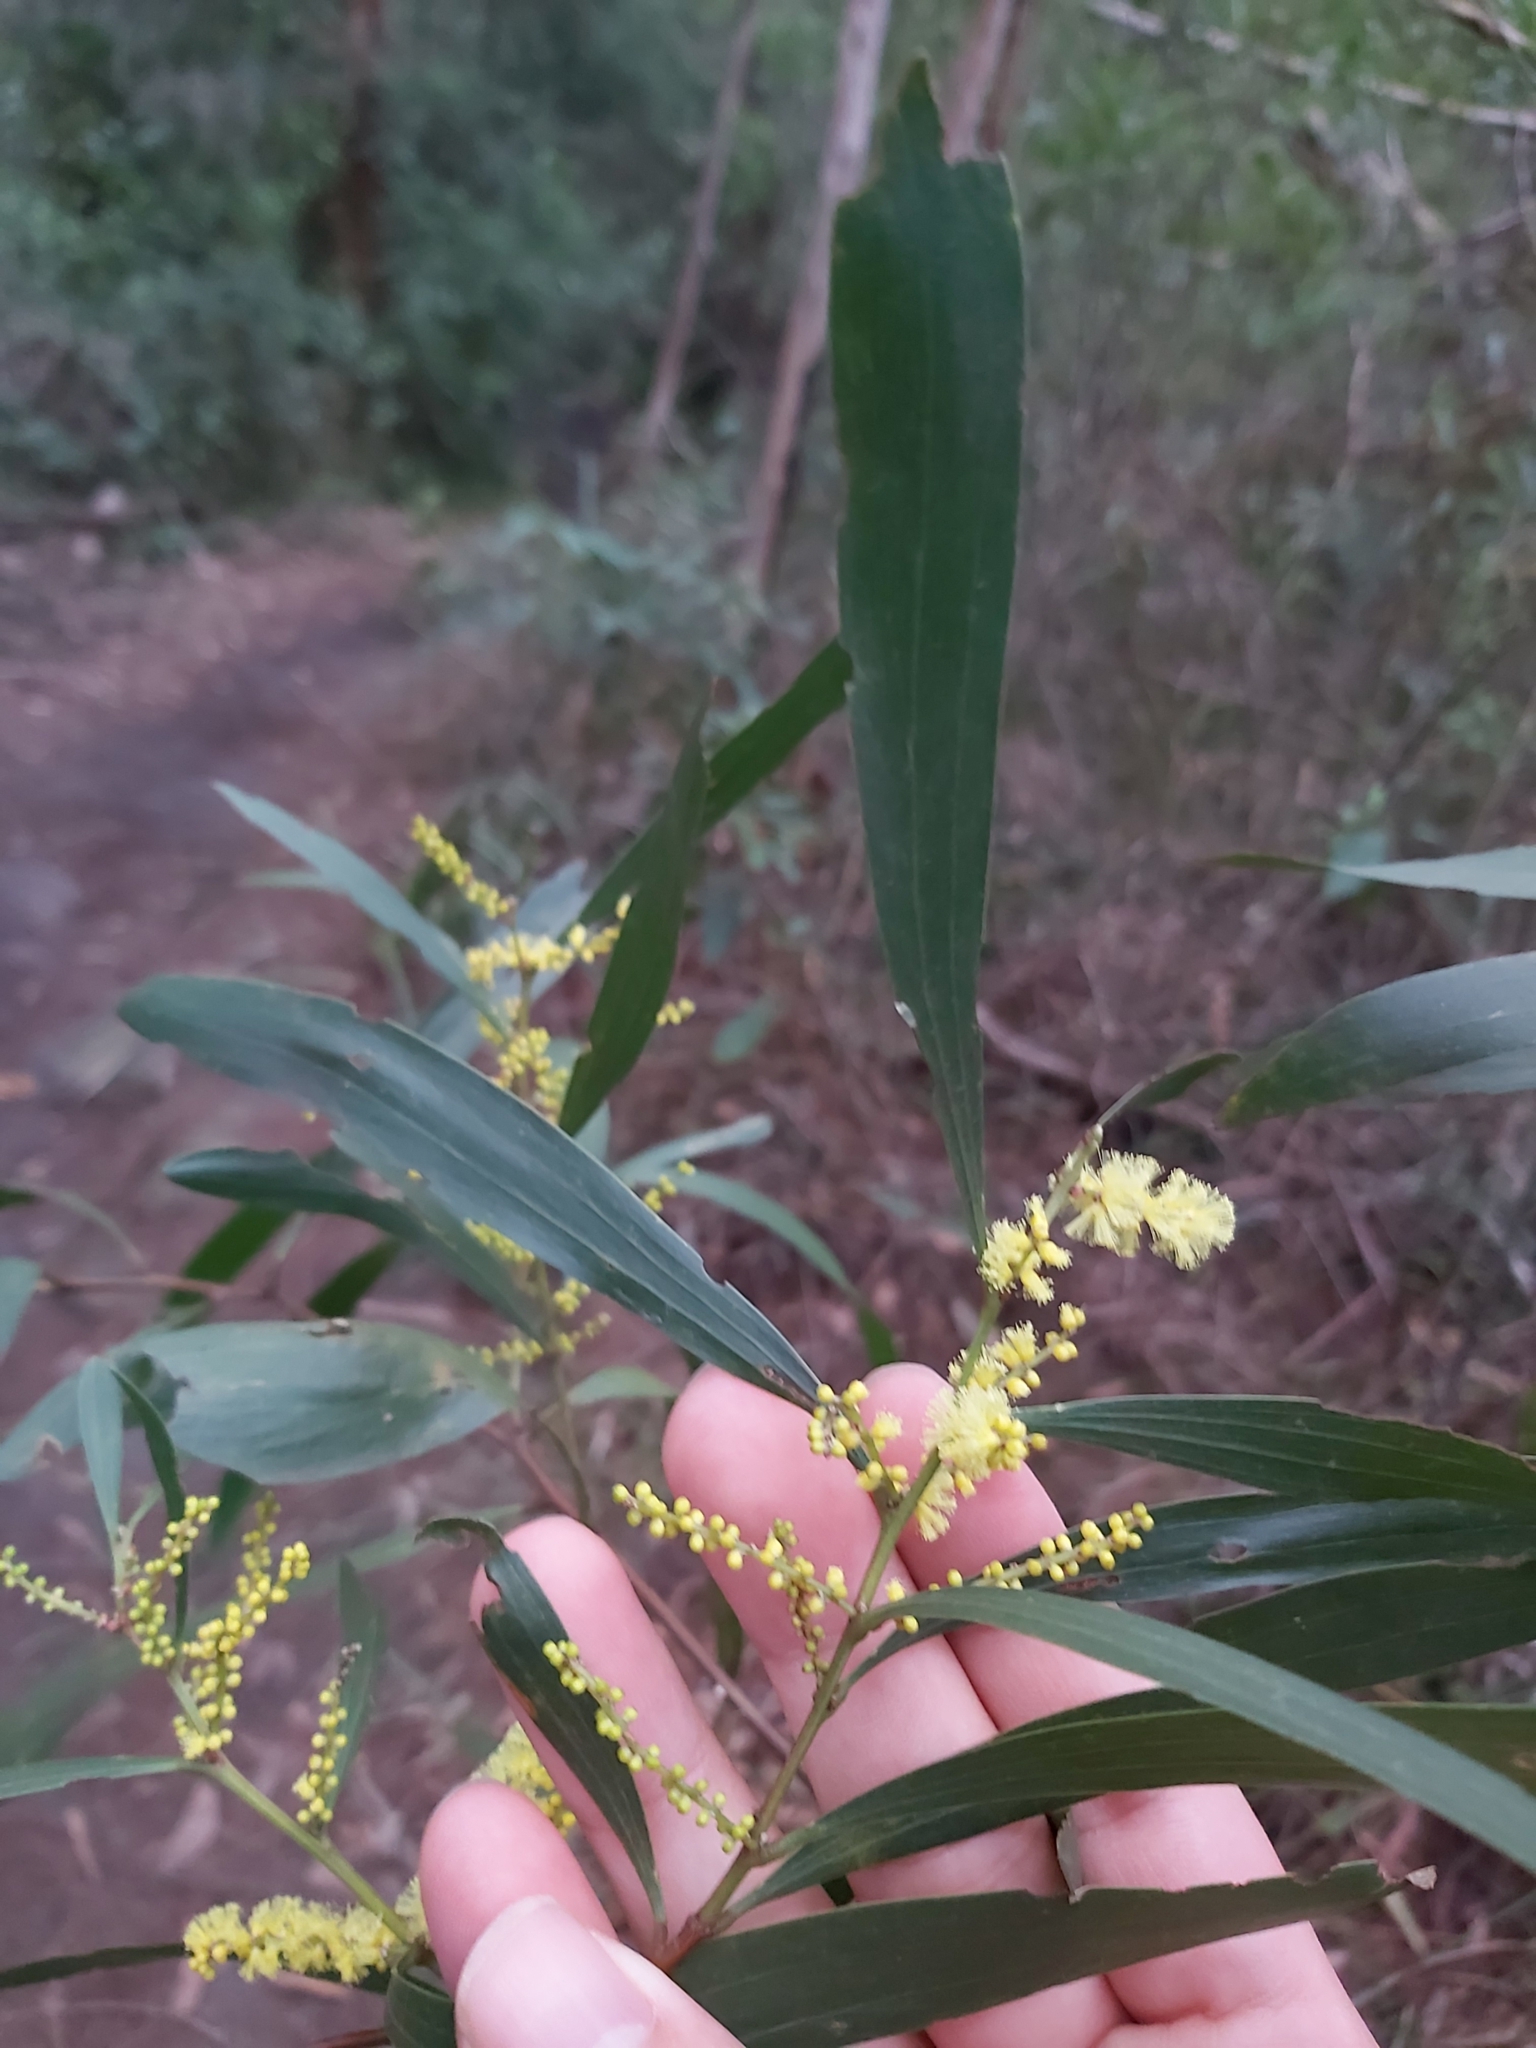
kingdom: Plantae
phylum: Tracheophyta
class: Magnoliopsida
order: Fabales
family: Fabaceae
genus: Acacia
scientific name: Acacia longifolia
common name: Sydney golden wattle
